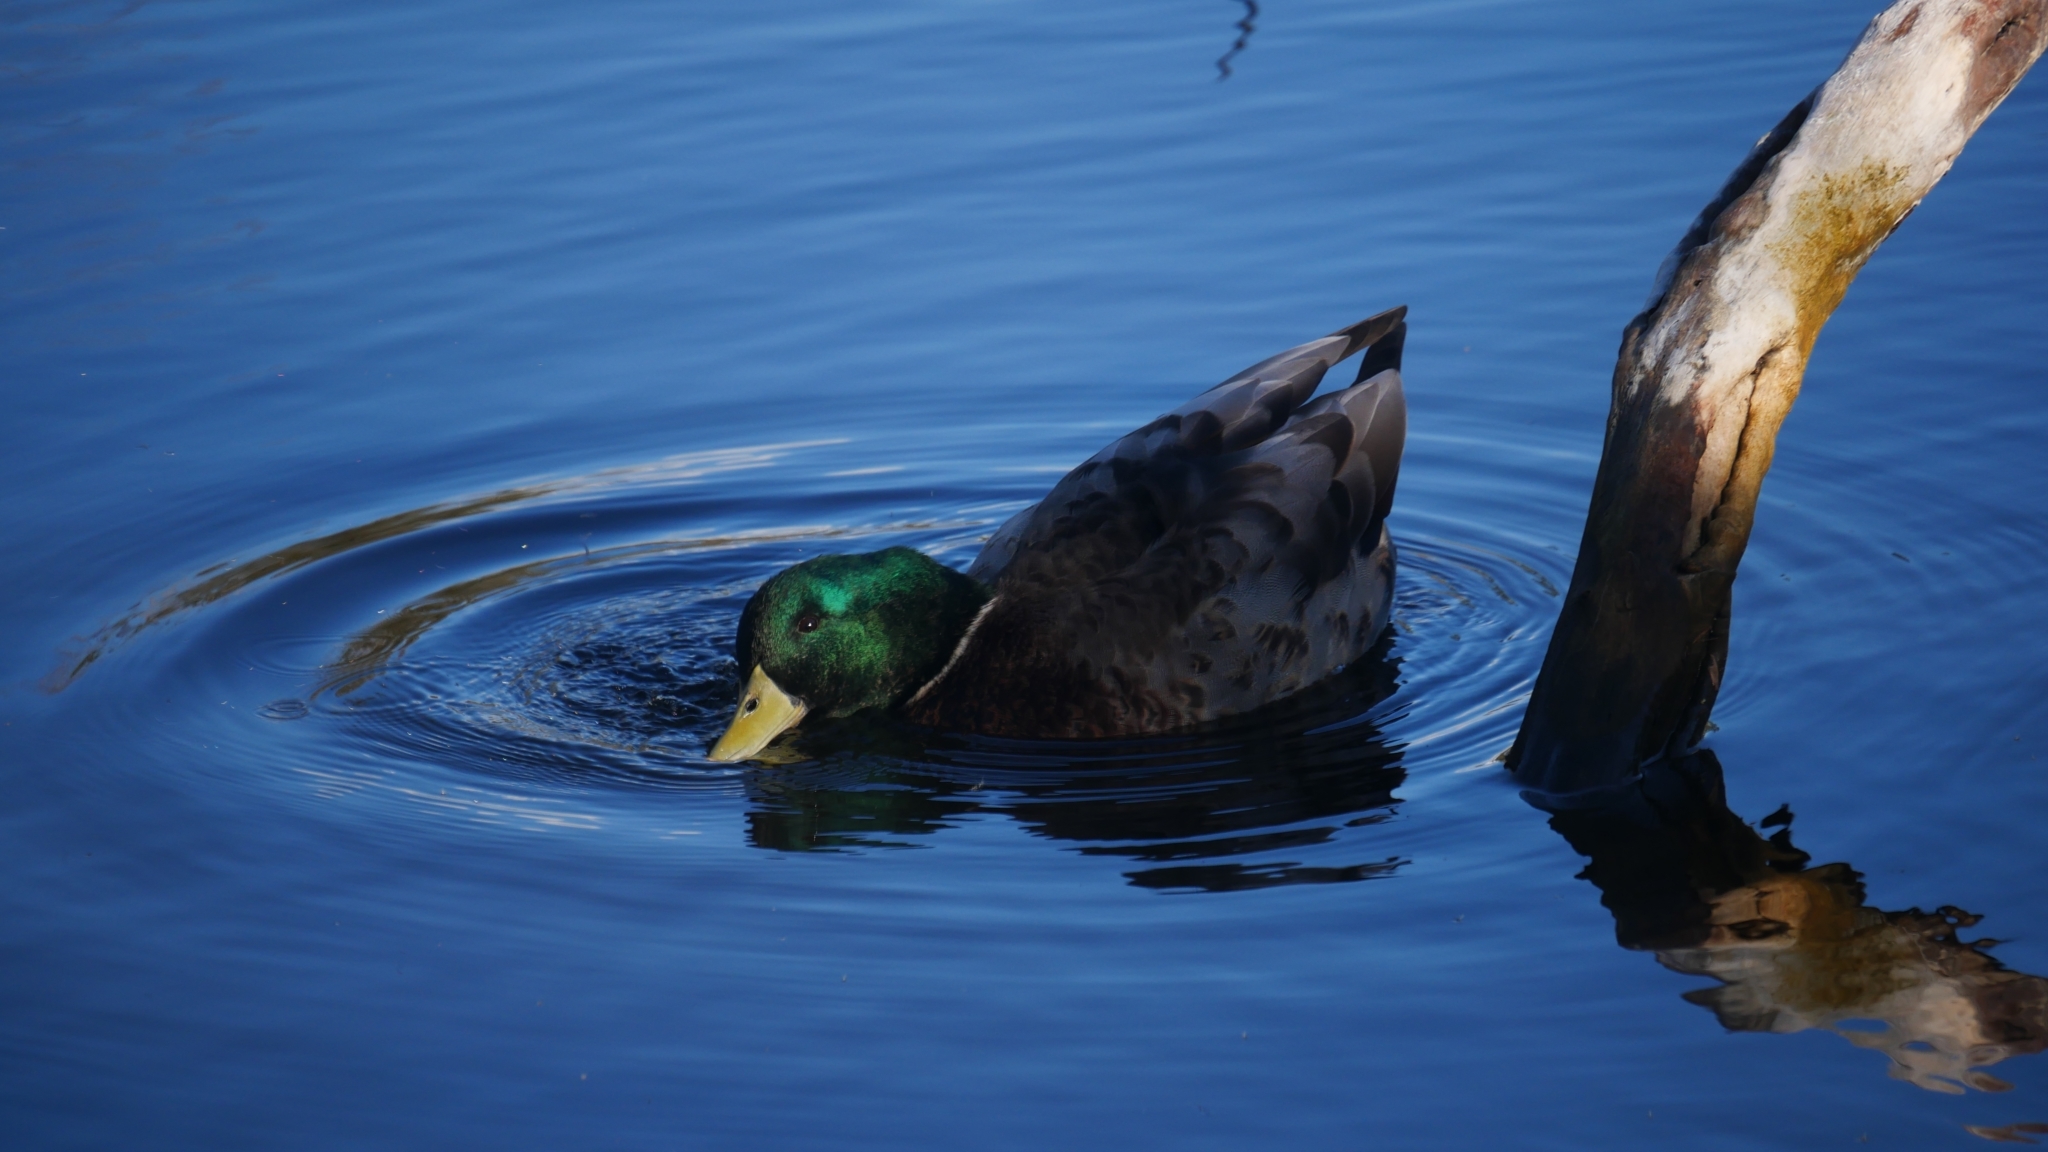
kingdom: Animalia
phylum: Chordata
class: Aves
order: Anseriformes
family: Anatidae
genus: Anas
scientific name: Anas platyrhynchos
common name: Mallard
